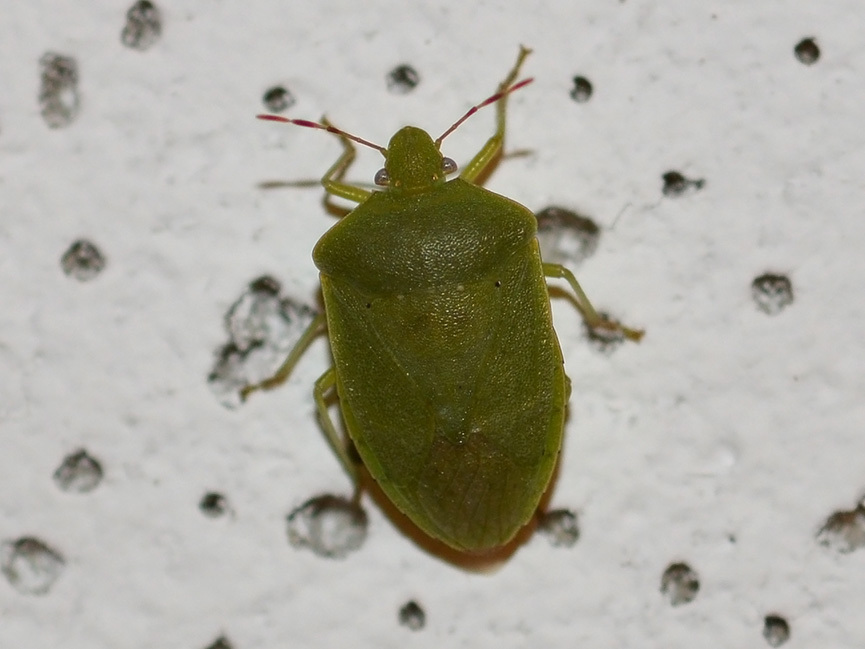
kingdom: Animalia
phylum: Arthropoda
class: Insecta
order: Hemiptera
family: Pentatomidae
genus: Nezara
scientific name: Nezara viridula
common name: Southern green stink bug
